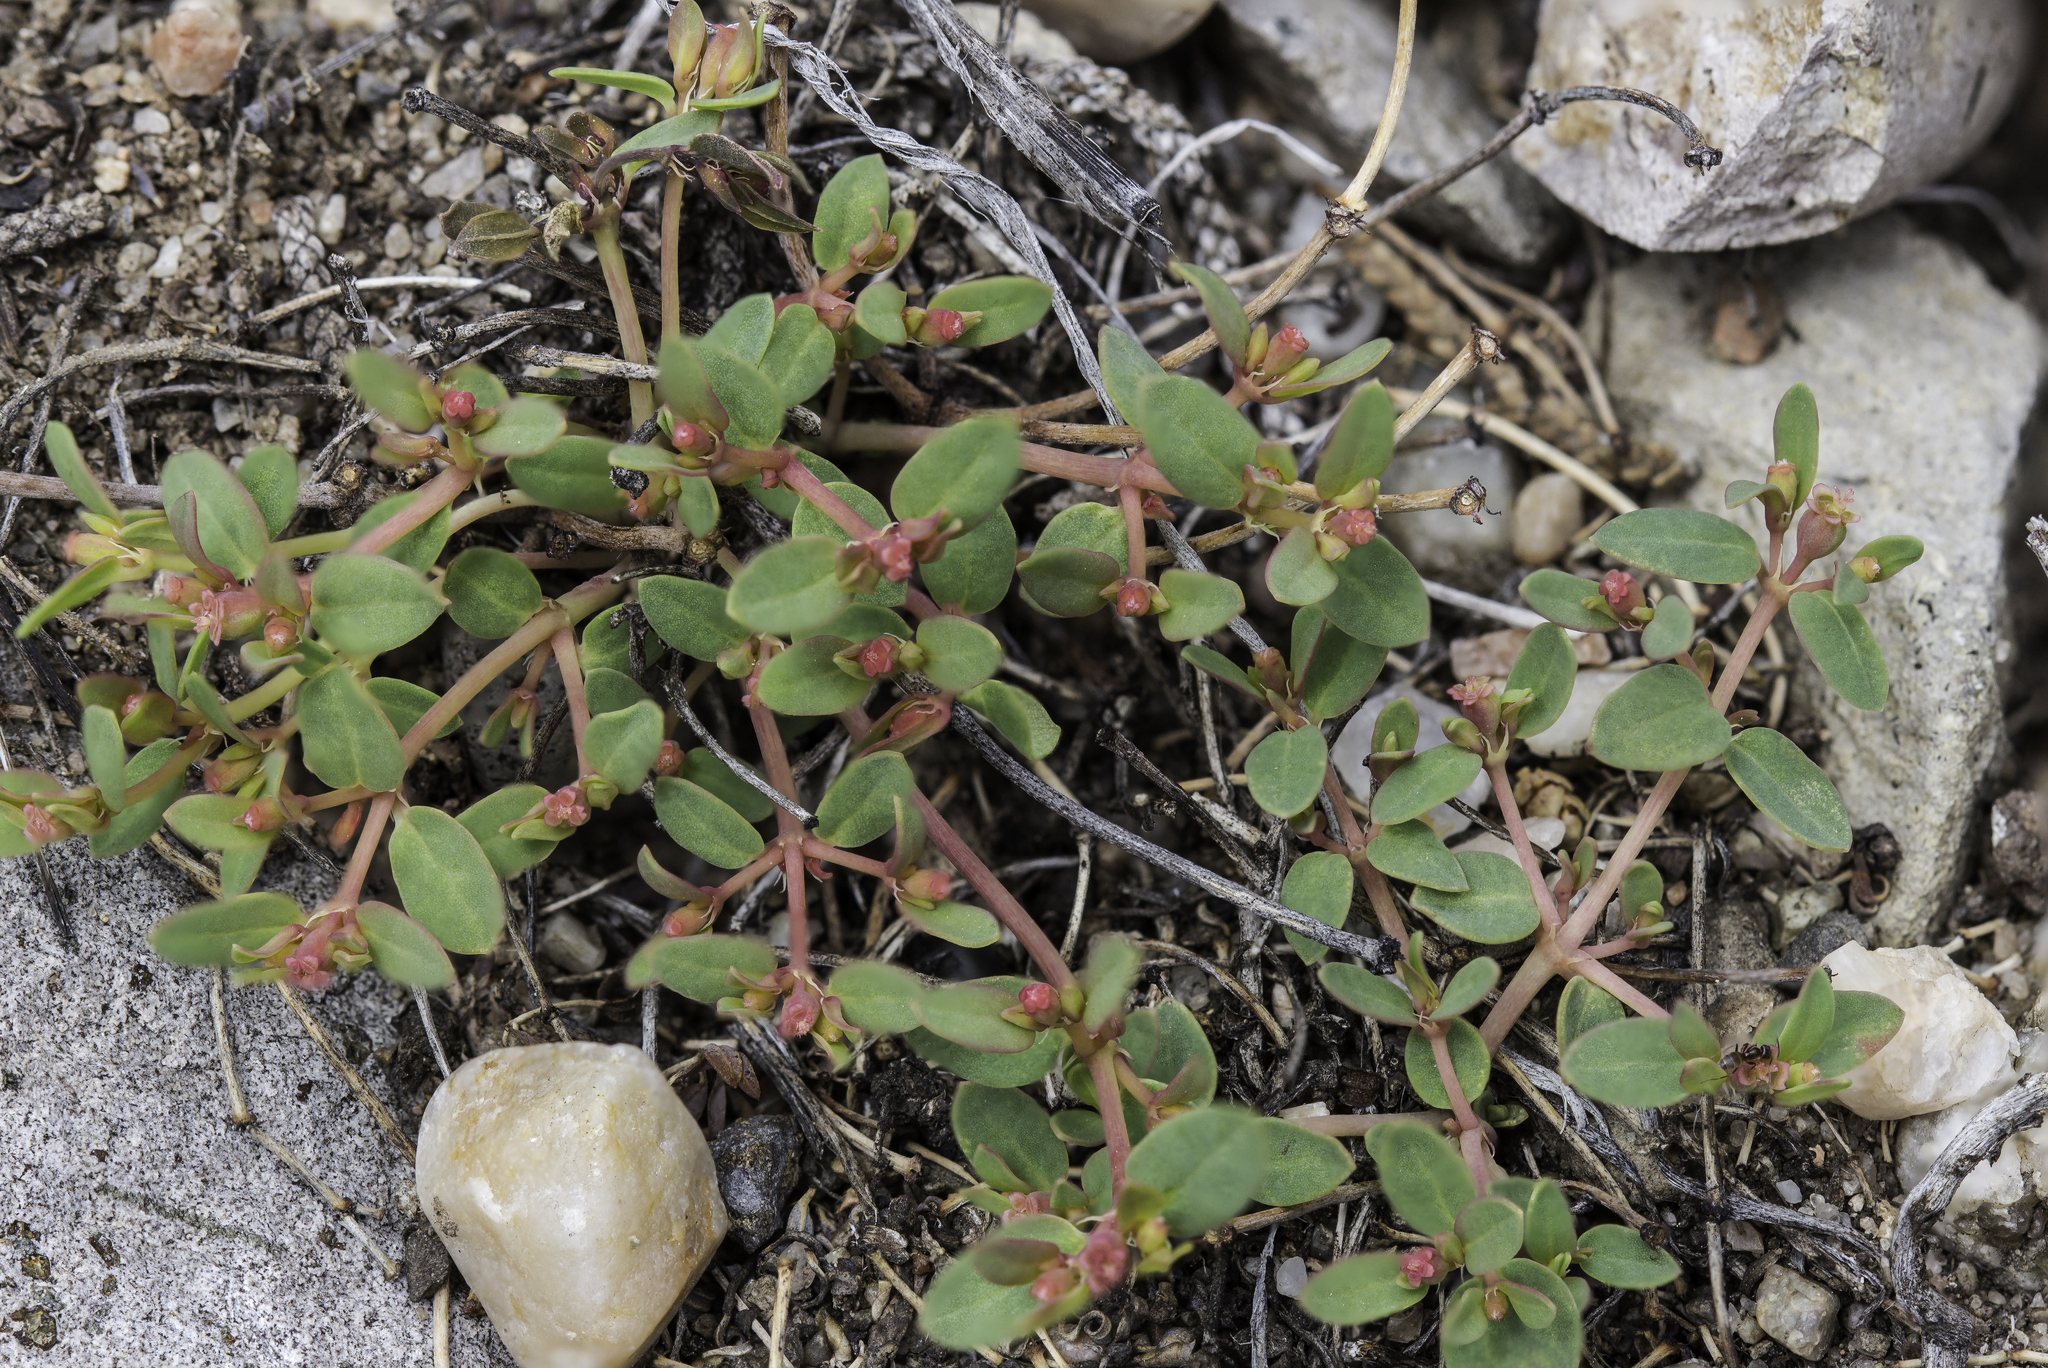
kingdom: Plantae
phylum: Tracheophyta
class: Magnoliopsida
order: Malpighiales
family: Euphorbiaceae
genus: Euphorbia
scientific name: Euphorbia fendleri
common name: Fendler's euphorbia
